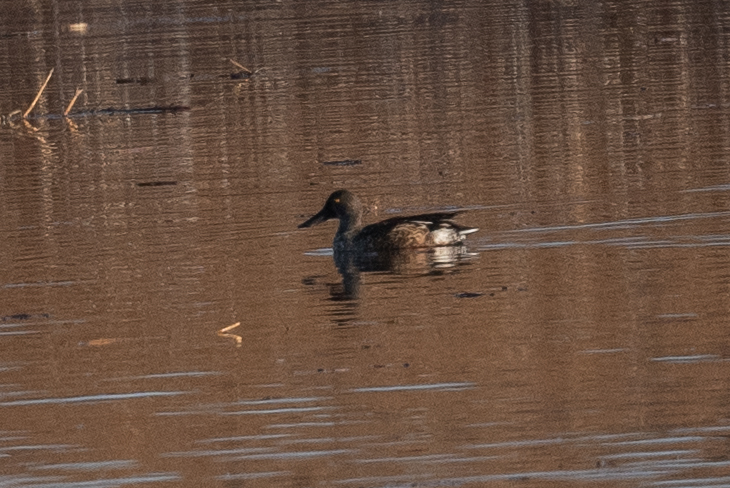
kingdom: Animalia
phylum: Chordata
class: Aves
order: Anseriformes
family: Anatidae
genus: Spatula
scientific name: Spatula clypeata
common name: Northern shoveler
